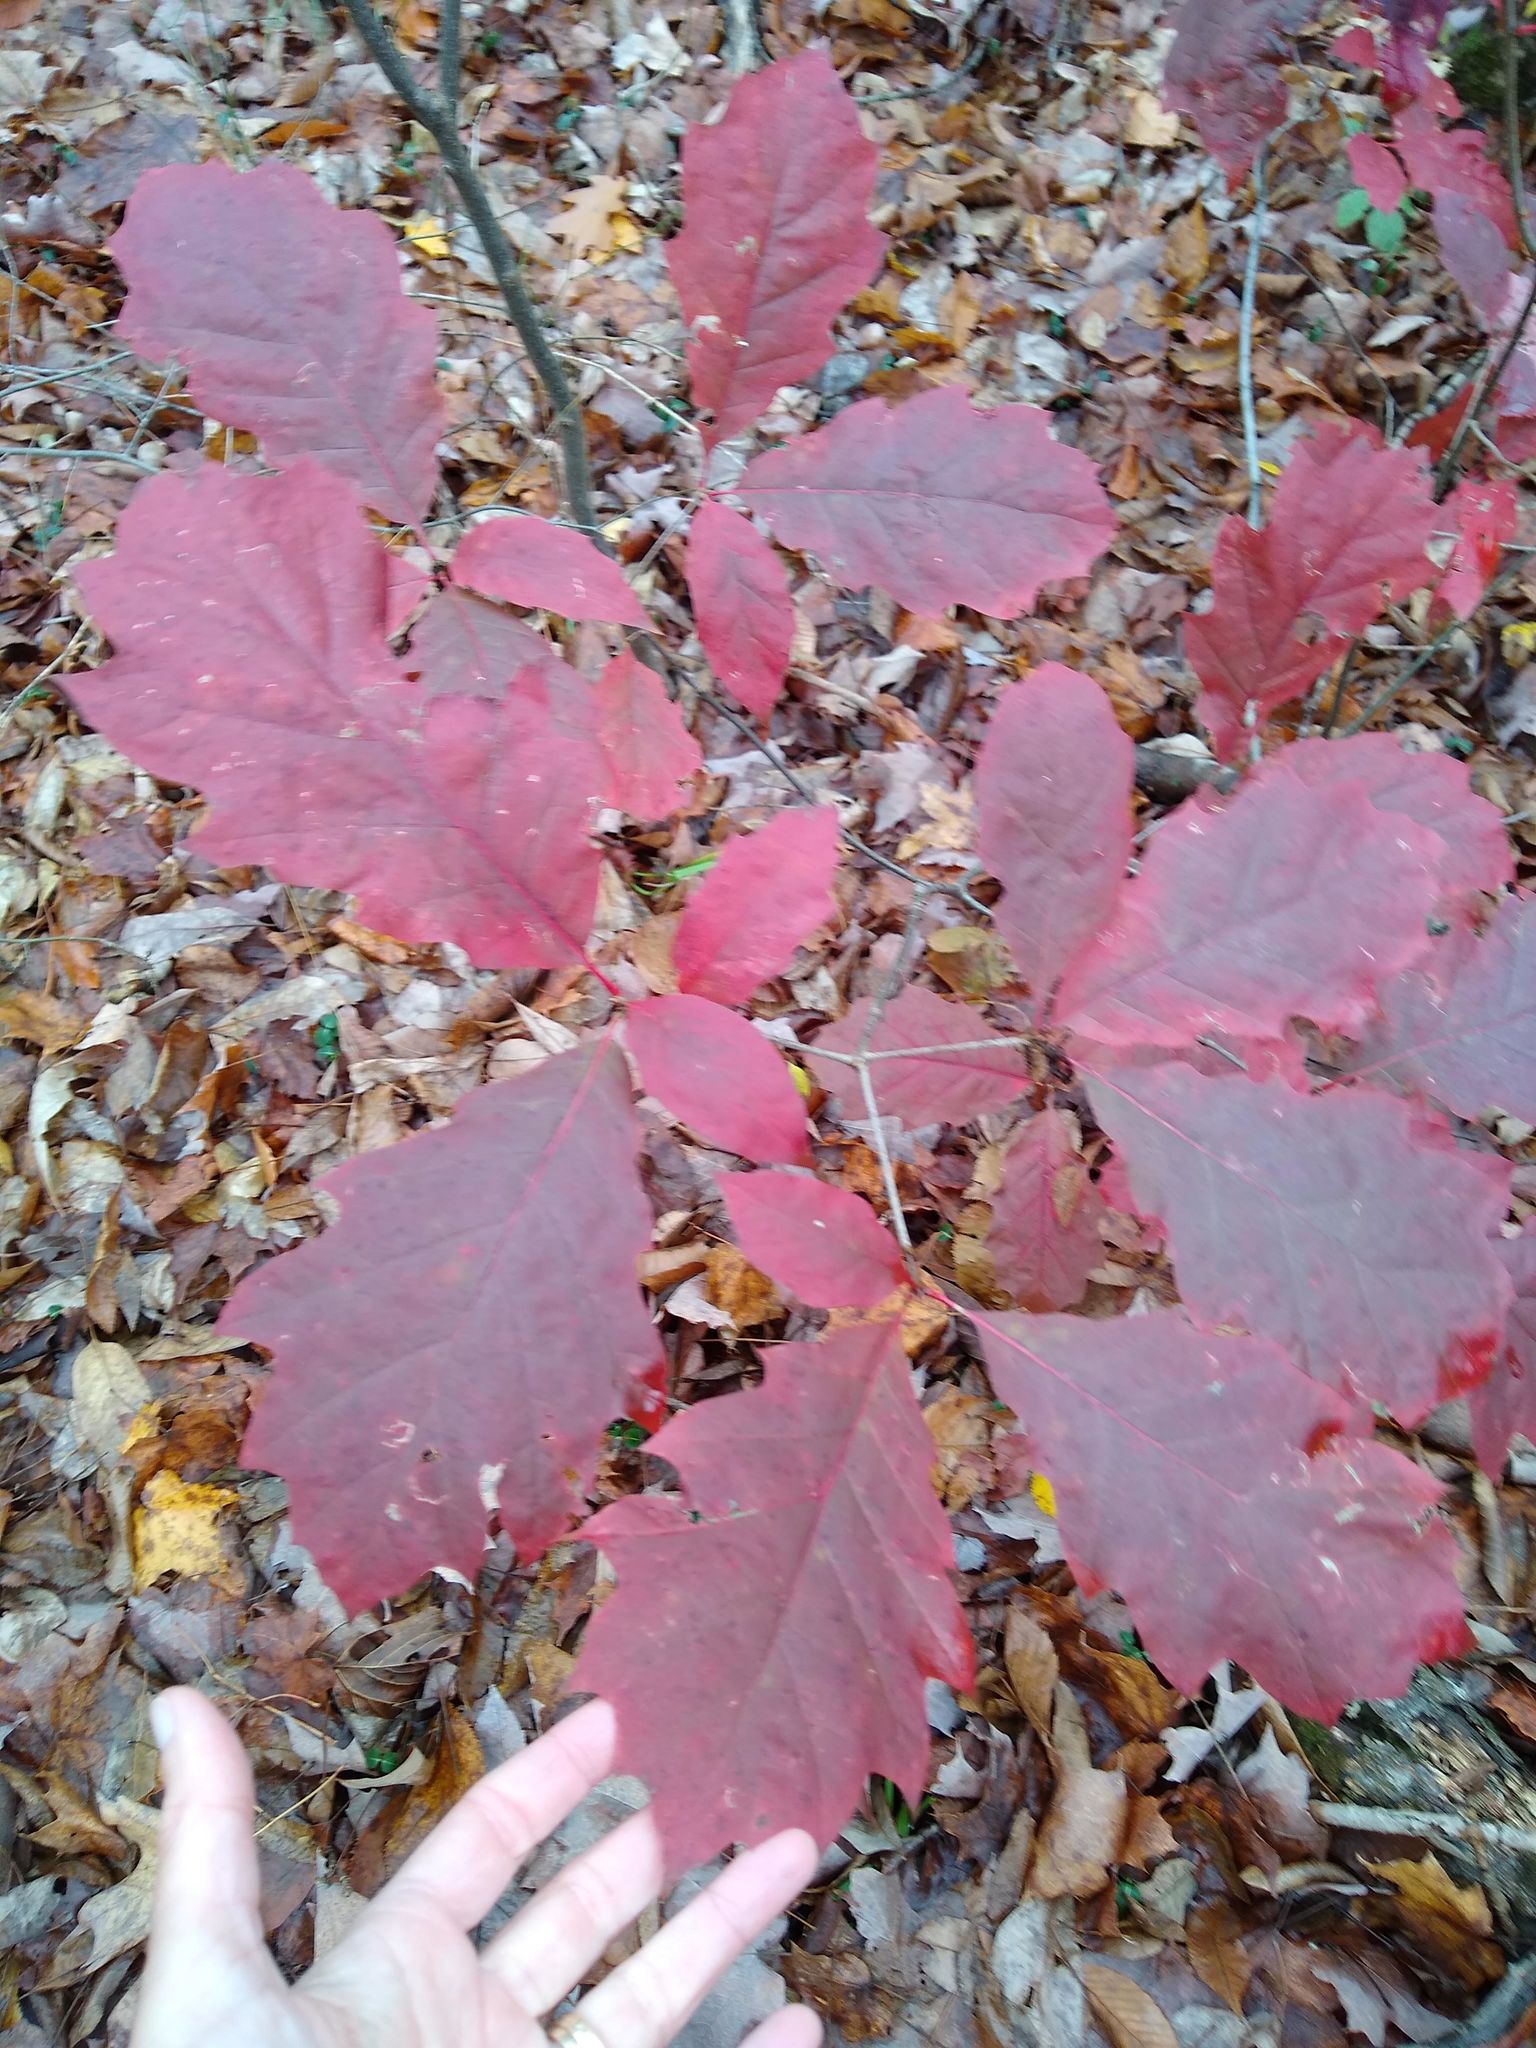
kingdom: Plantae
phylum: Tracheophyta
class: Magnoliopsida
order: Fagales
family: Fagaceae
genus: Quercus
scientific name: Quercus rubra
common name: Red oak
